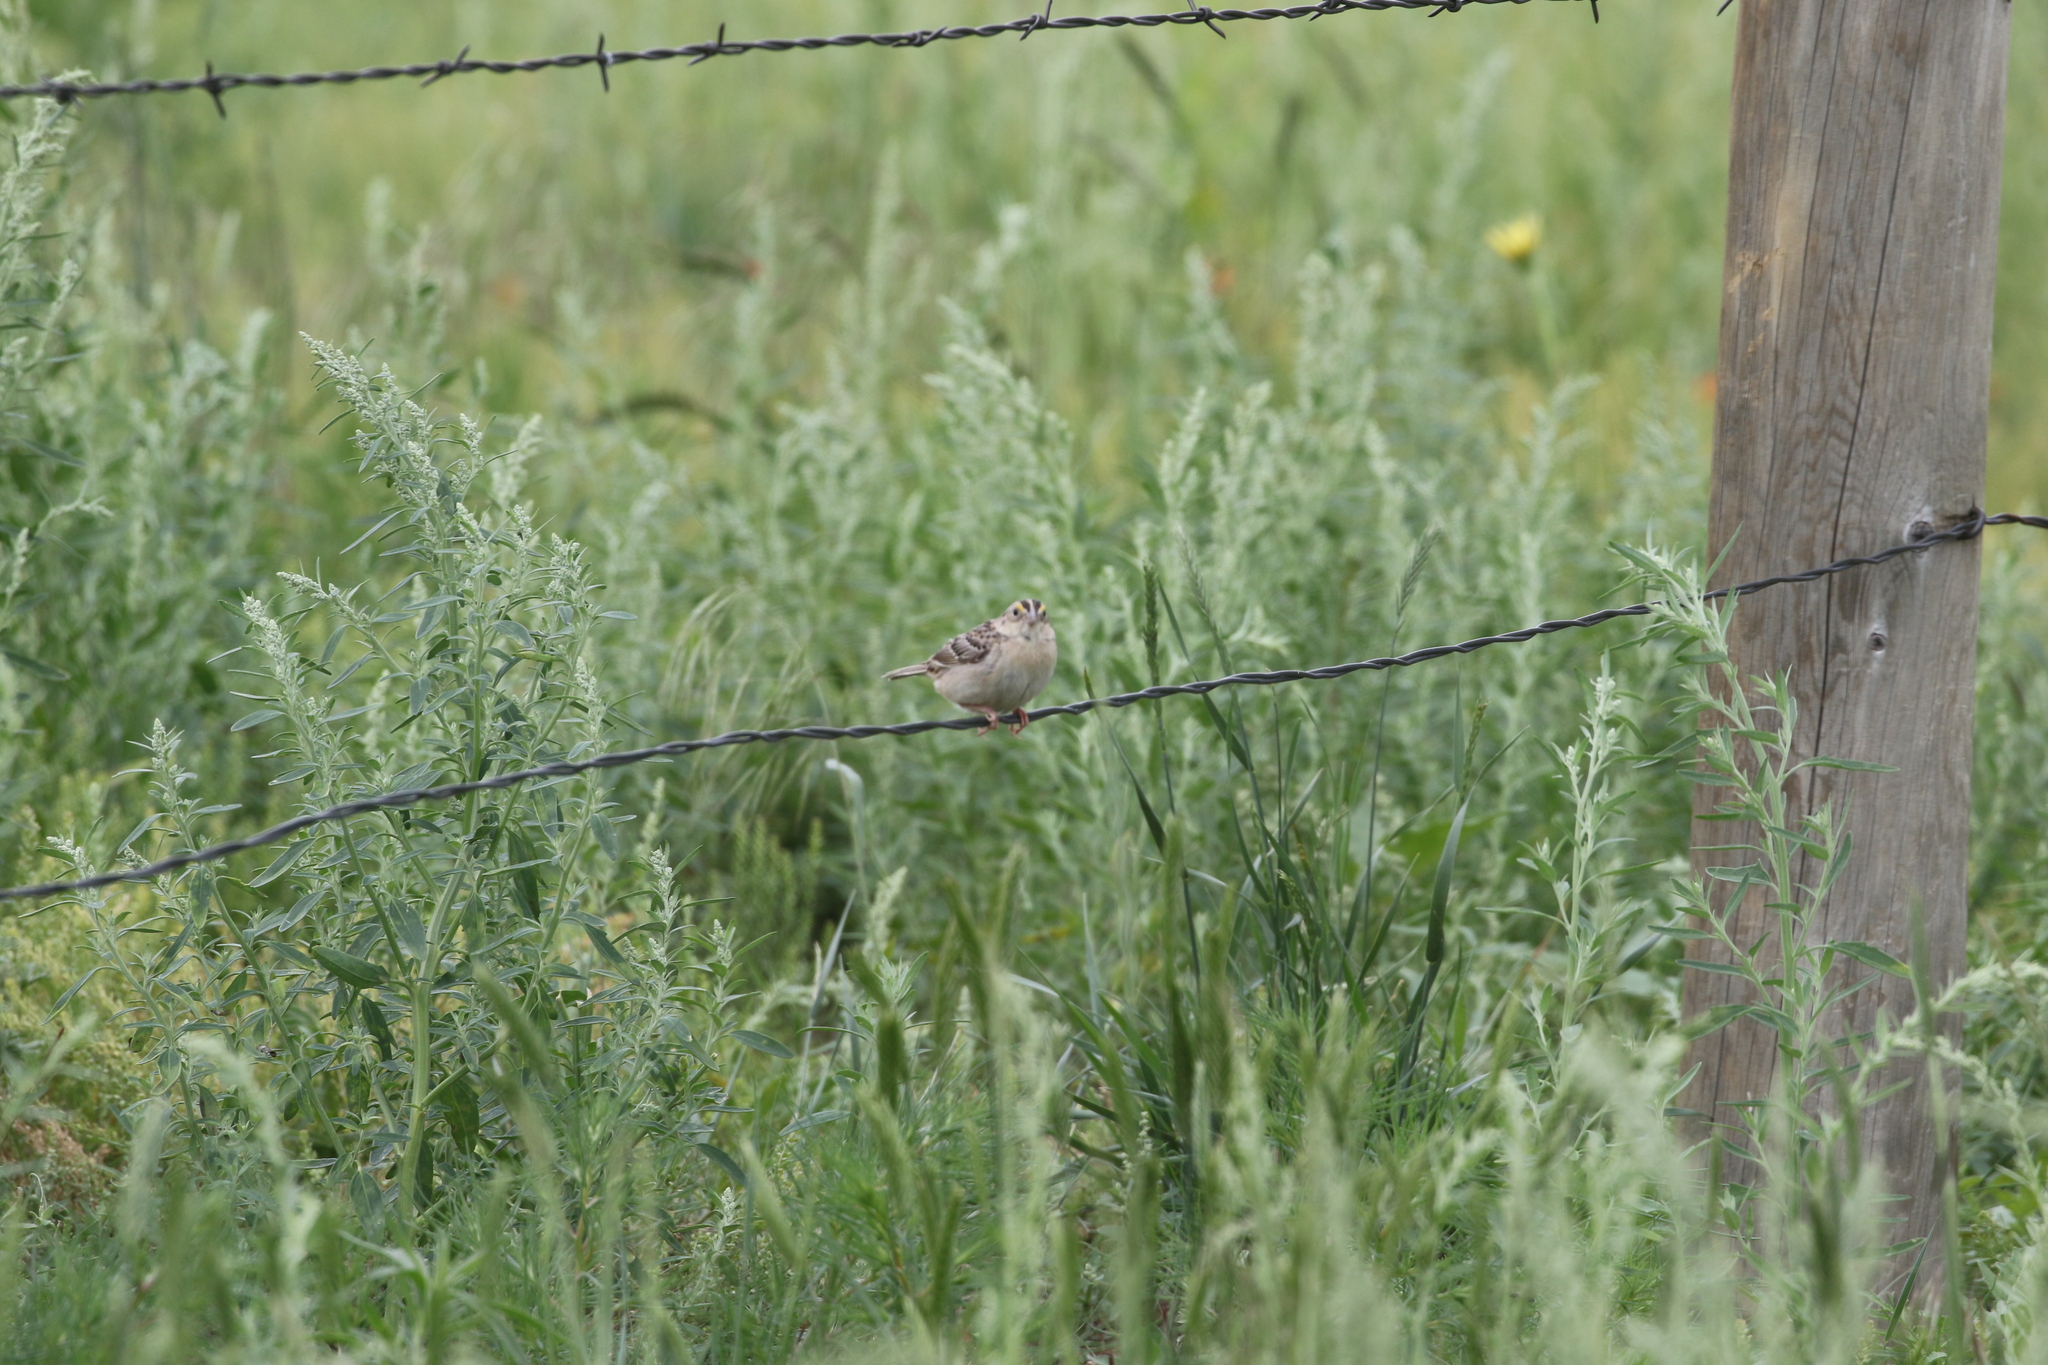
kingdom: Animalia
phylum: Chordata
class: Aves
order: Passeriformes
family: Passerellidae
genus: Ammodramus
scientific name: Ammodramus savannarum
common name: Grasshopper sparrow
